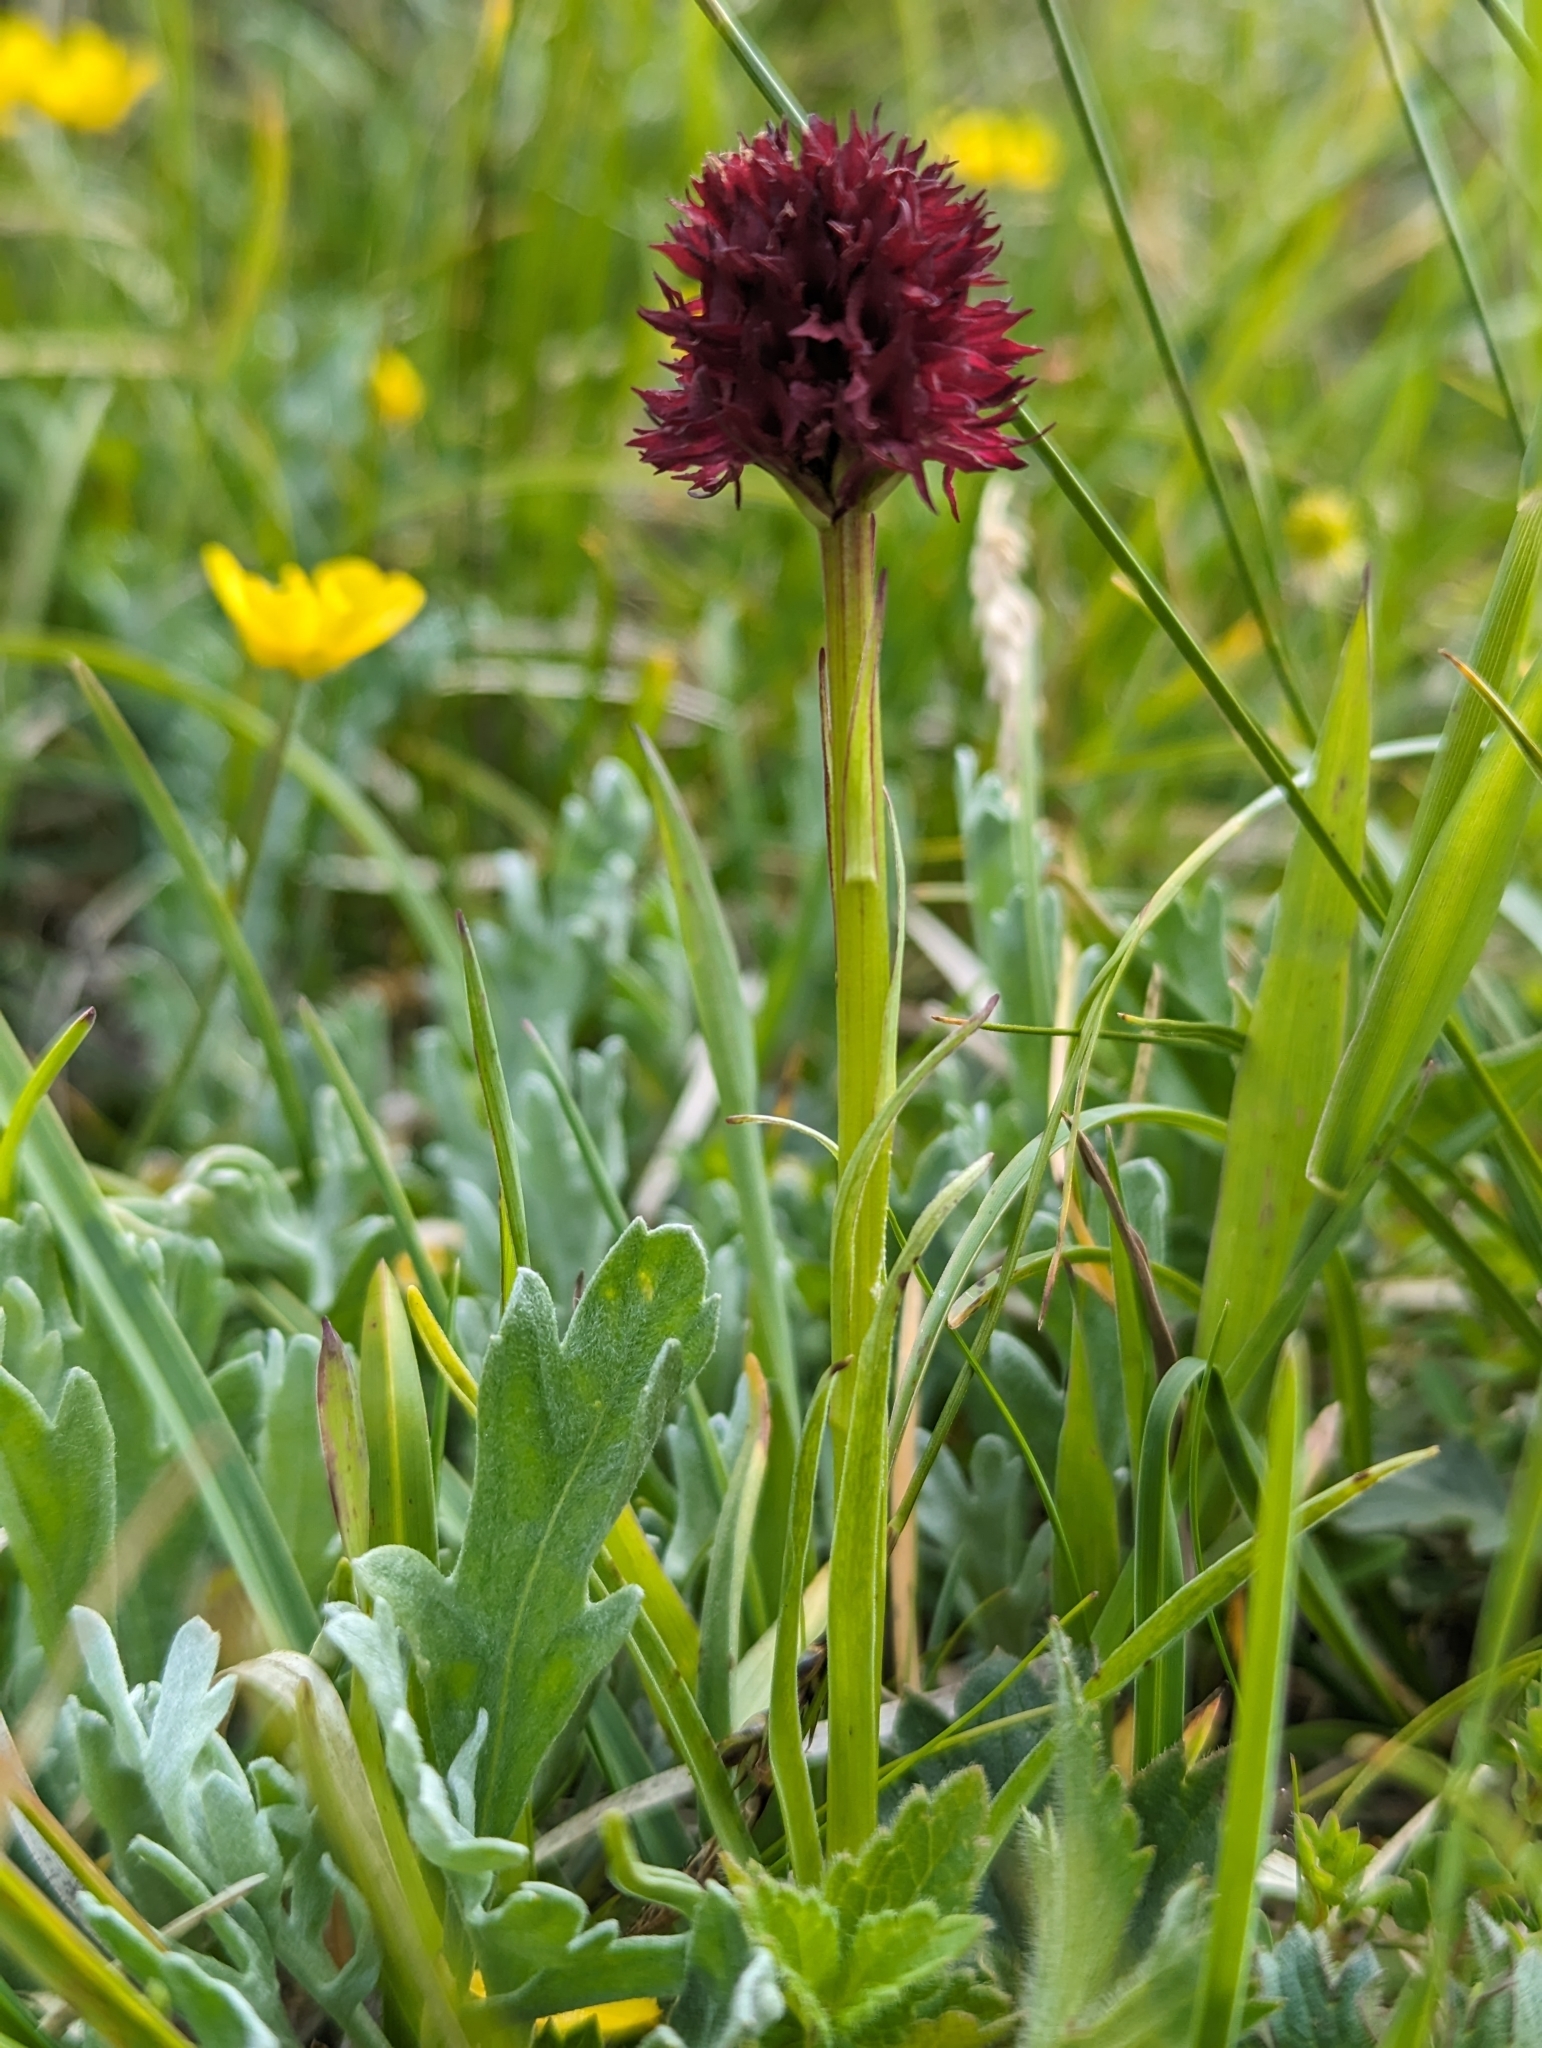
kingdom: Plantae
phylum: Tracheophyta
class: Liliopsida
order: Asparagales
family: Orchidaceae
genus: Gymnadenia
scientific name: Gymnadenia rhellicani
